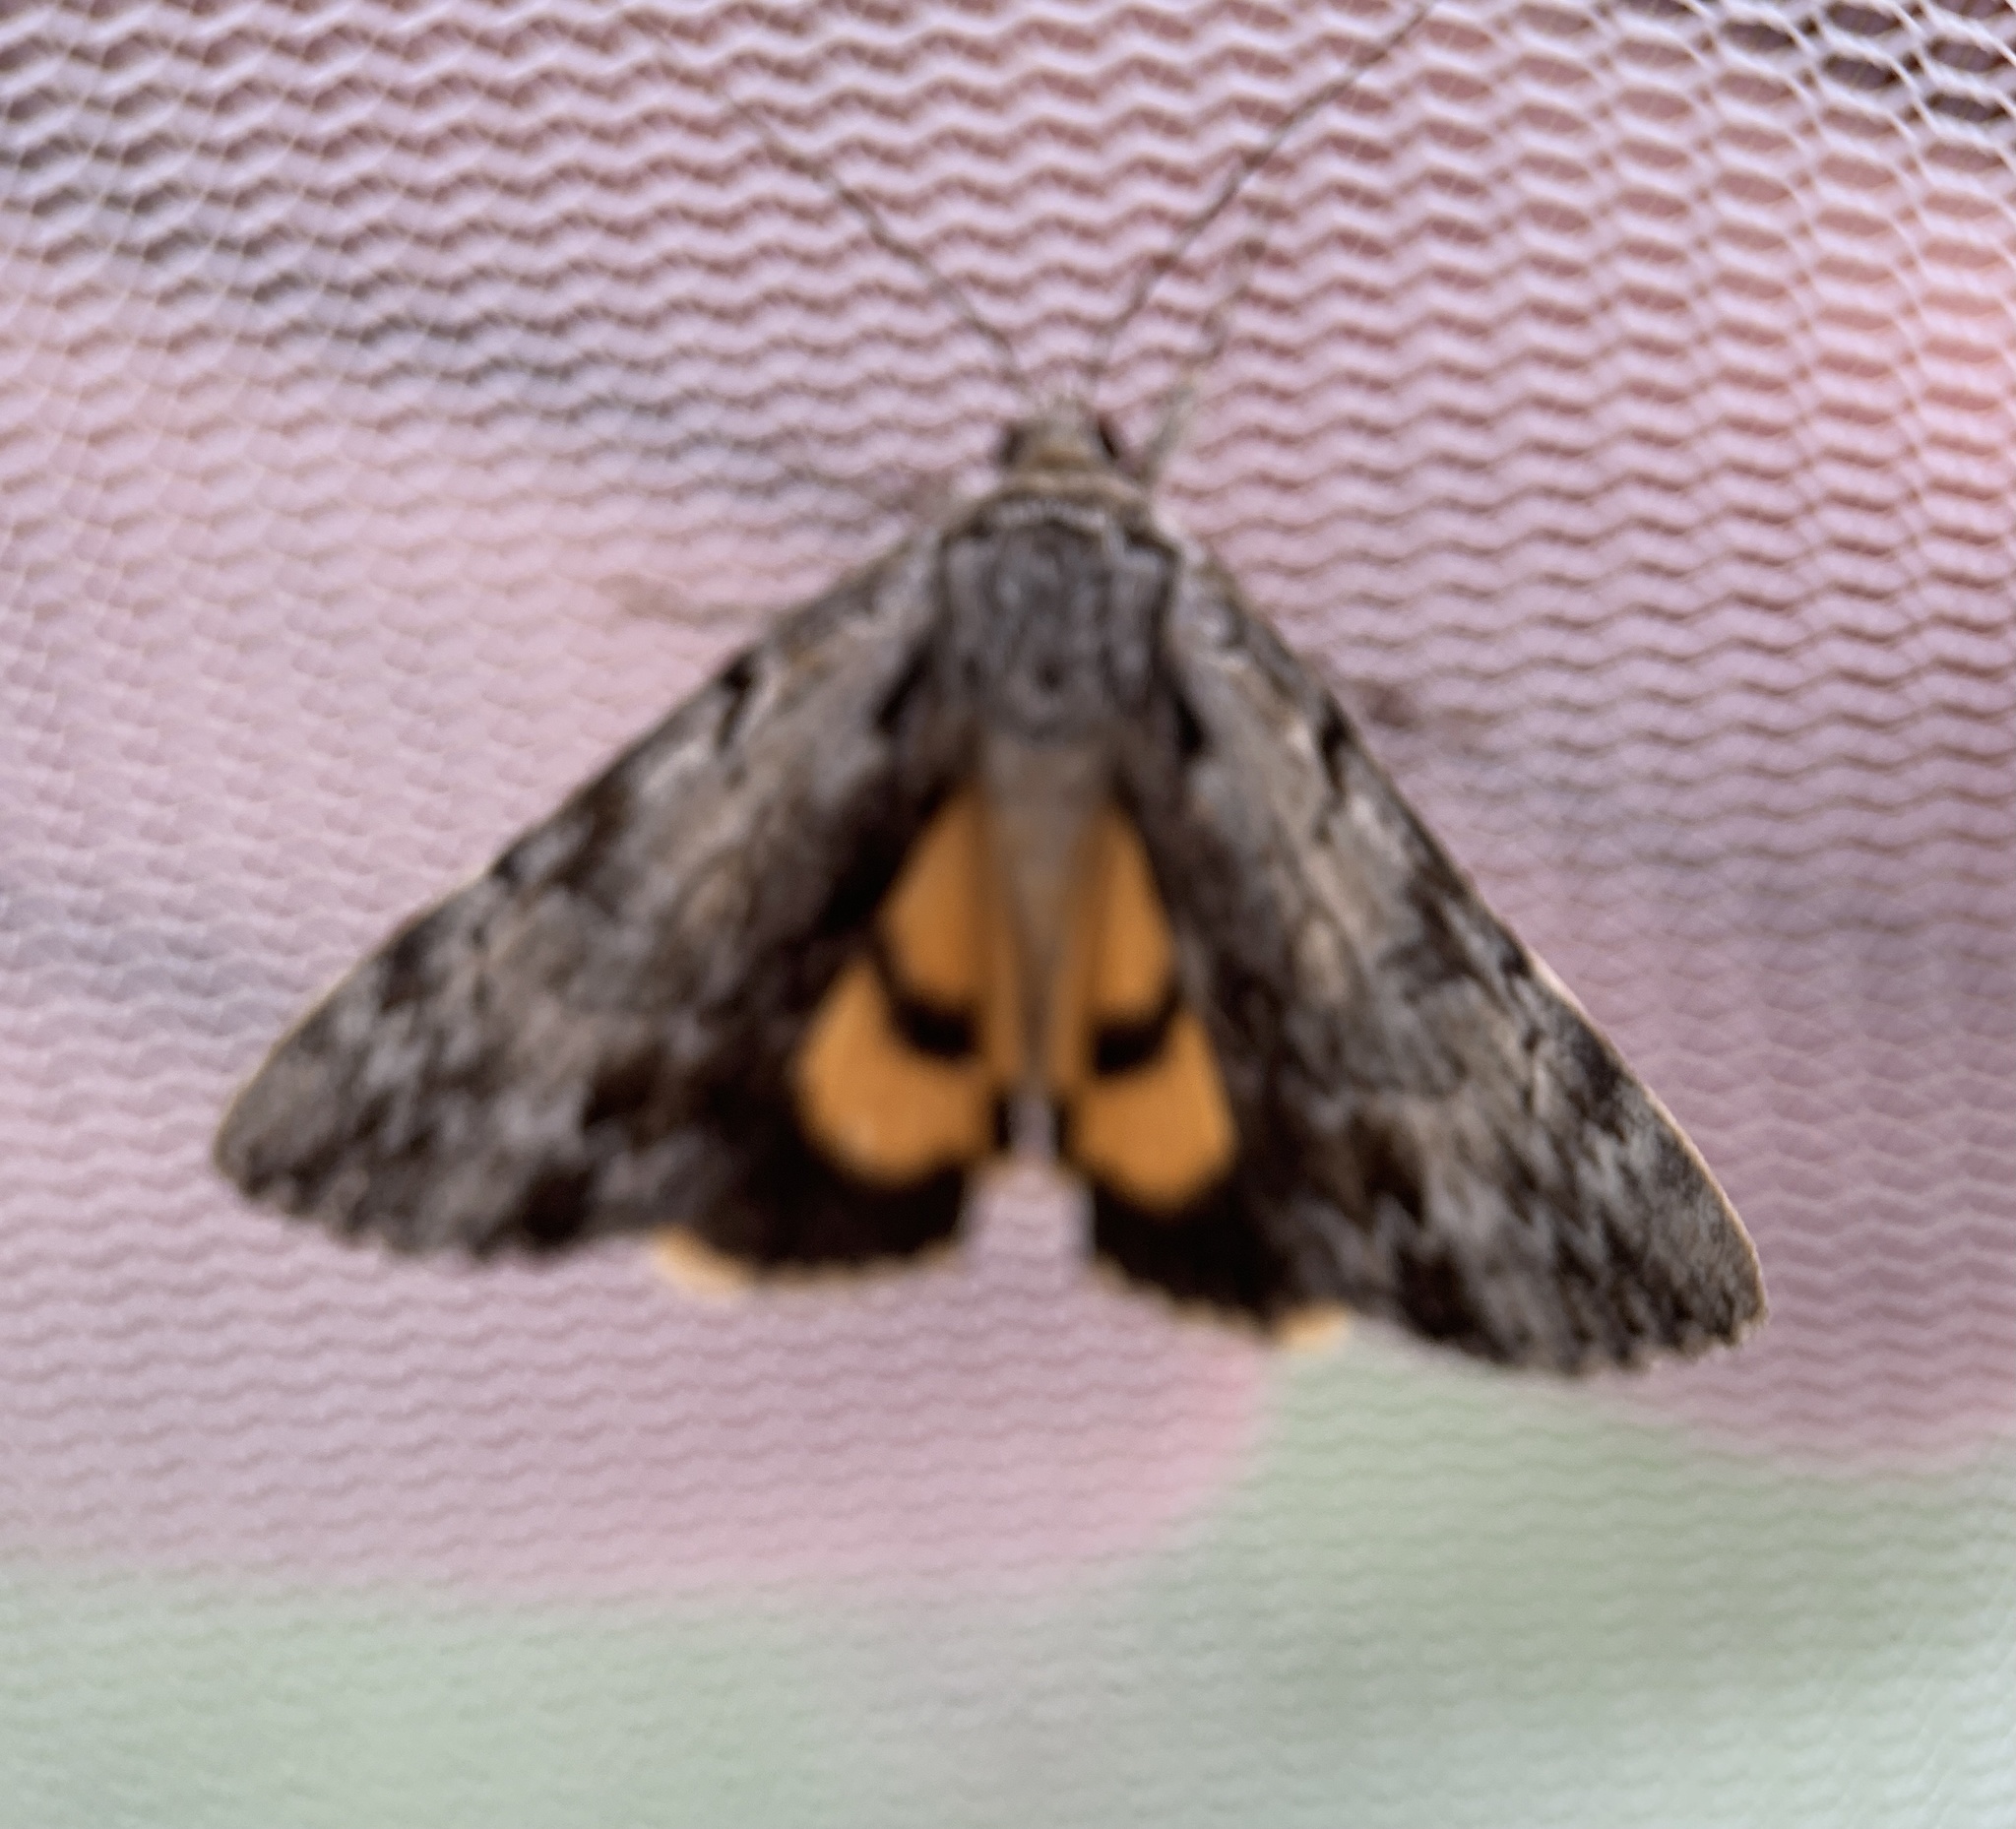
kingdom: Animalia
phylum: Arthropoda
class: Insecta
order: Lepidoptera
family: Erebidae
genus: Catocala
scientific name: Catocala gracilis
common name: Graceful underwing
